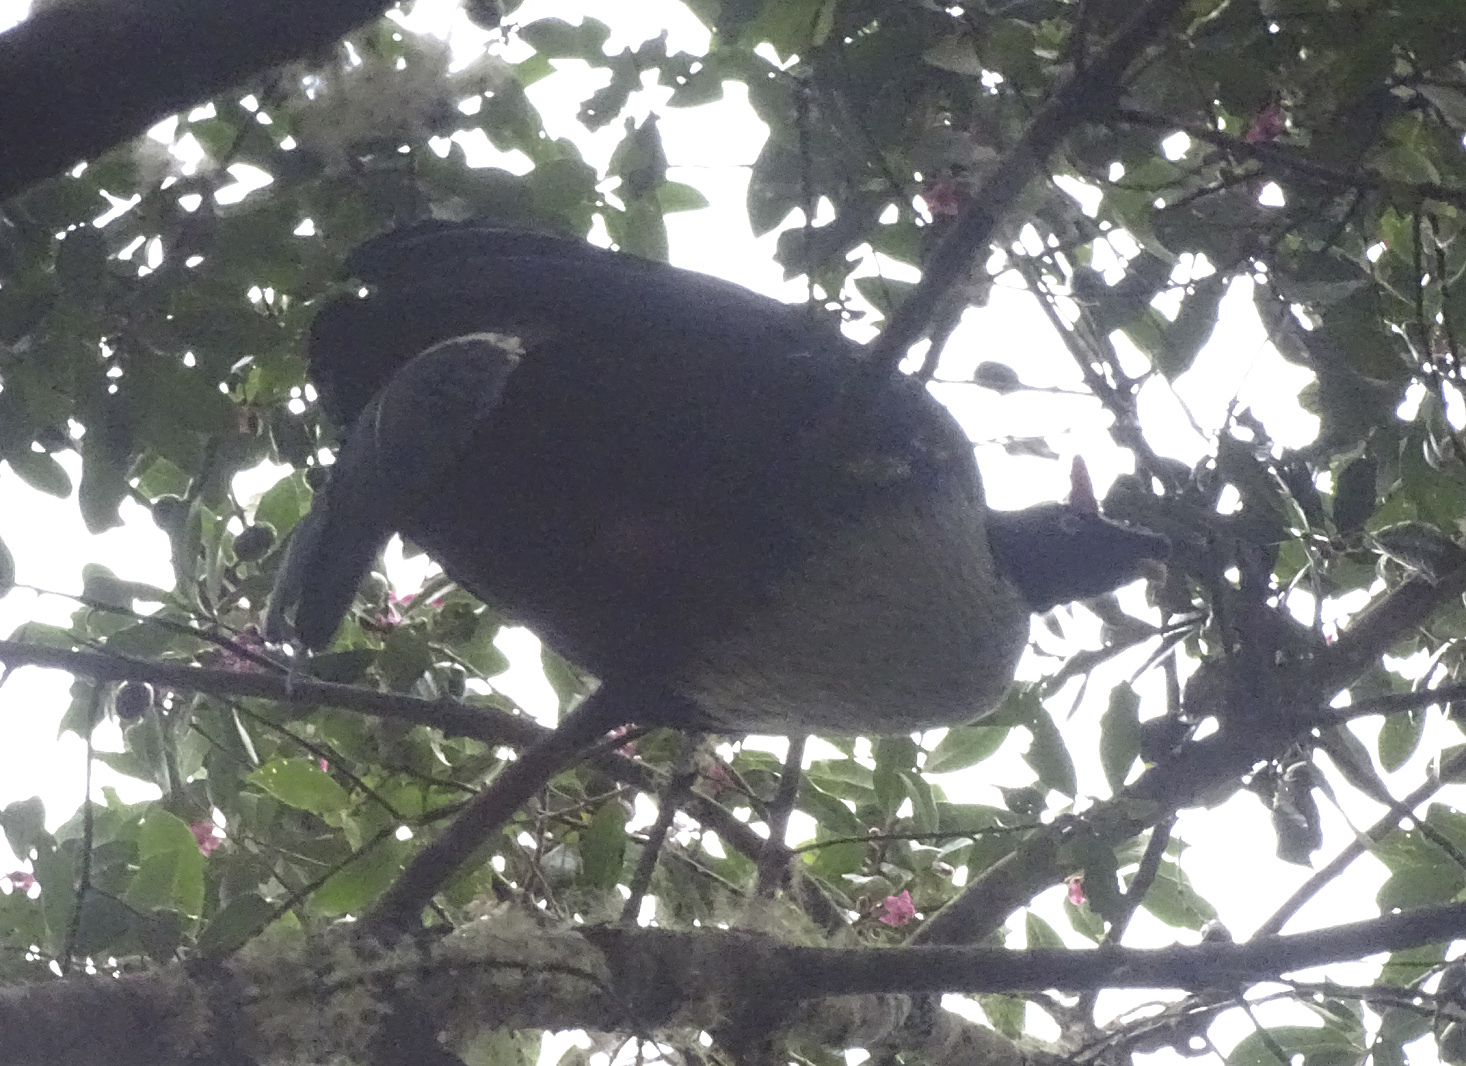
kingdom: Animalia
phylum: Chordata
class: Aves
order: Galliformes
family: Cracidae
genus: Oreophasis
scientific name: Oreophasis derbianus
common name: Horned guan
